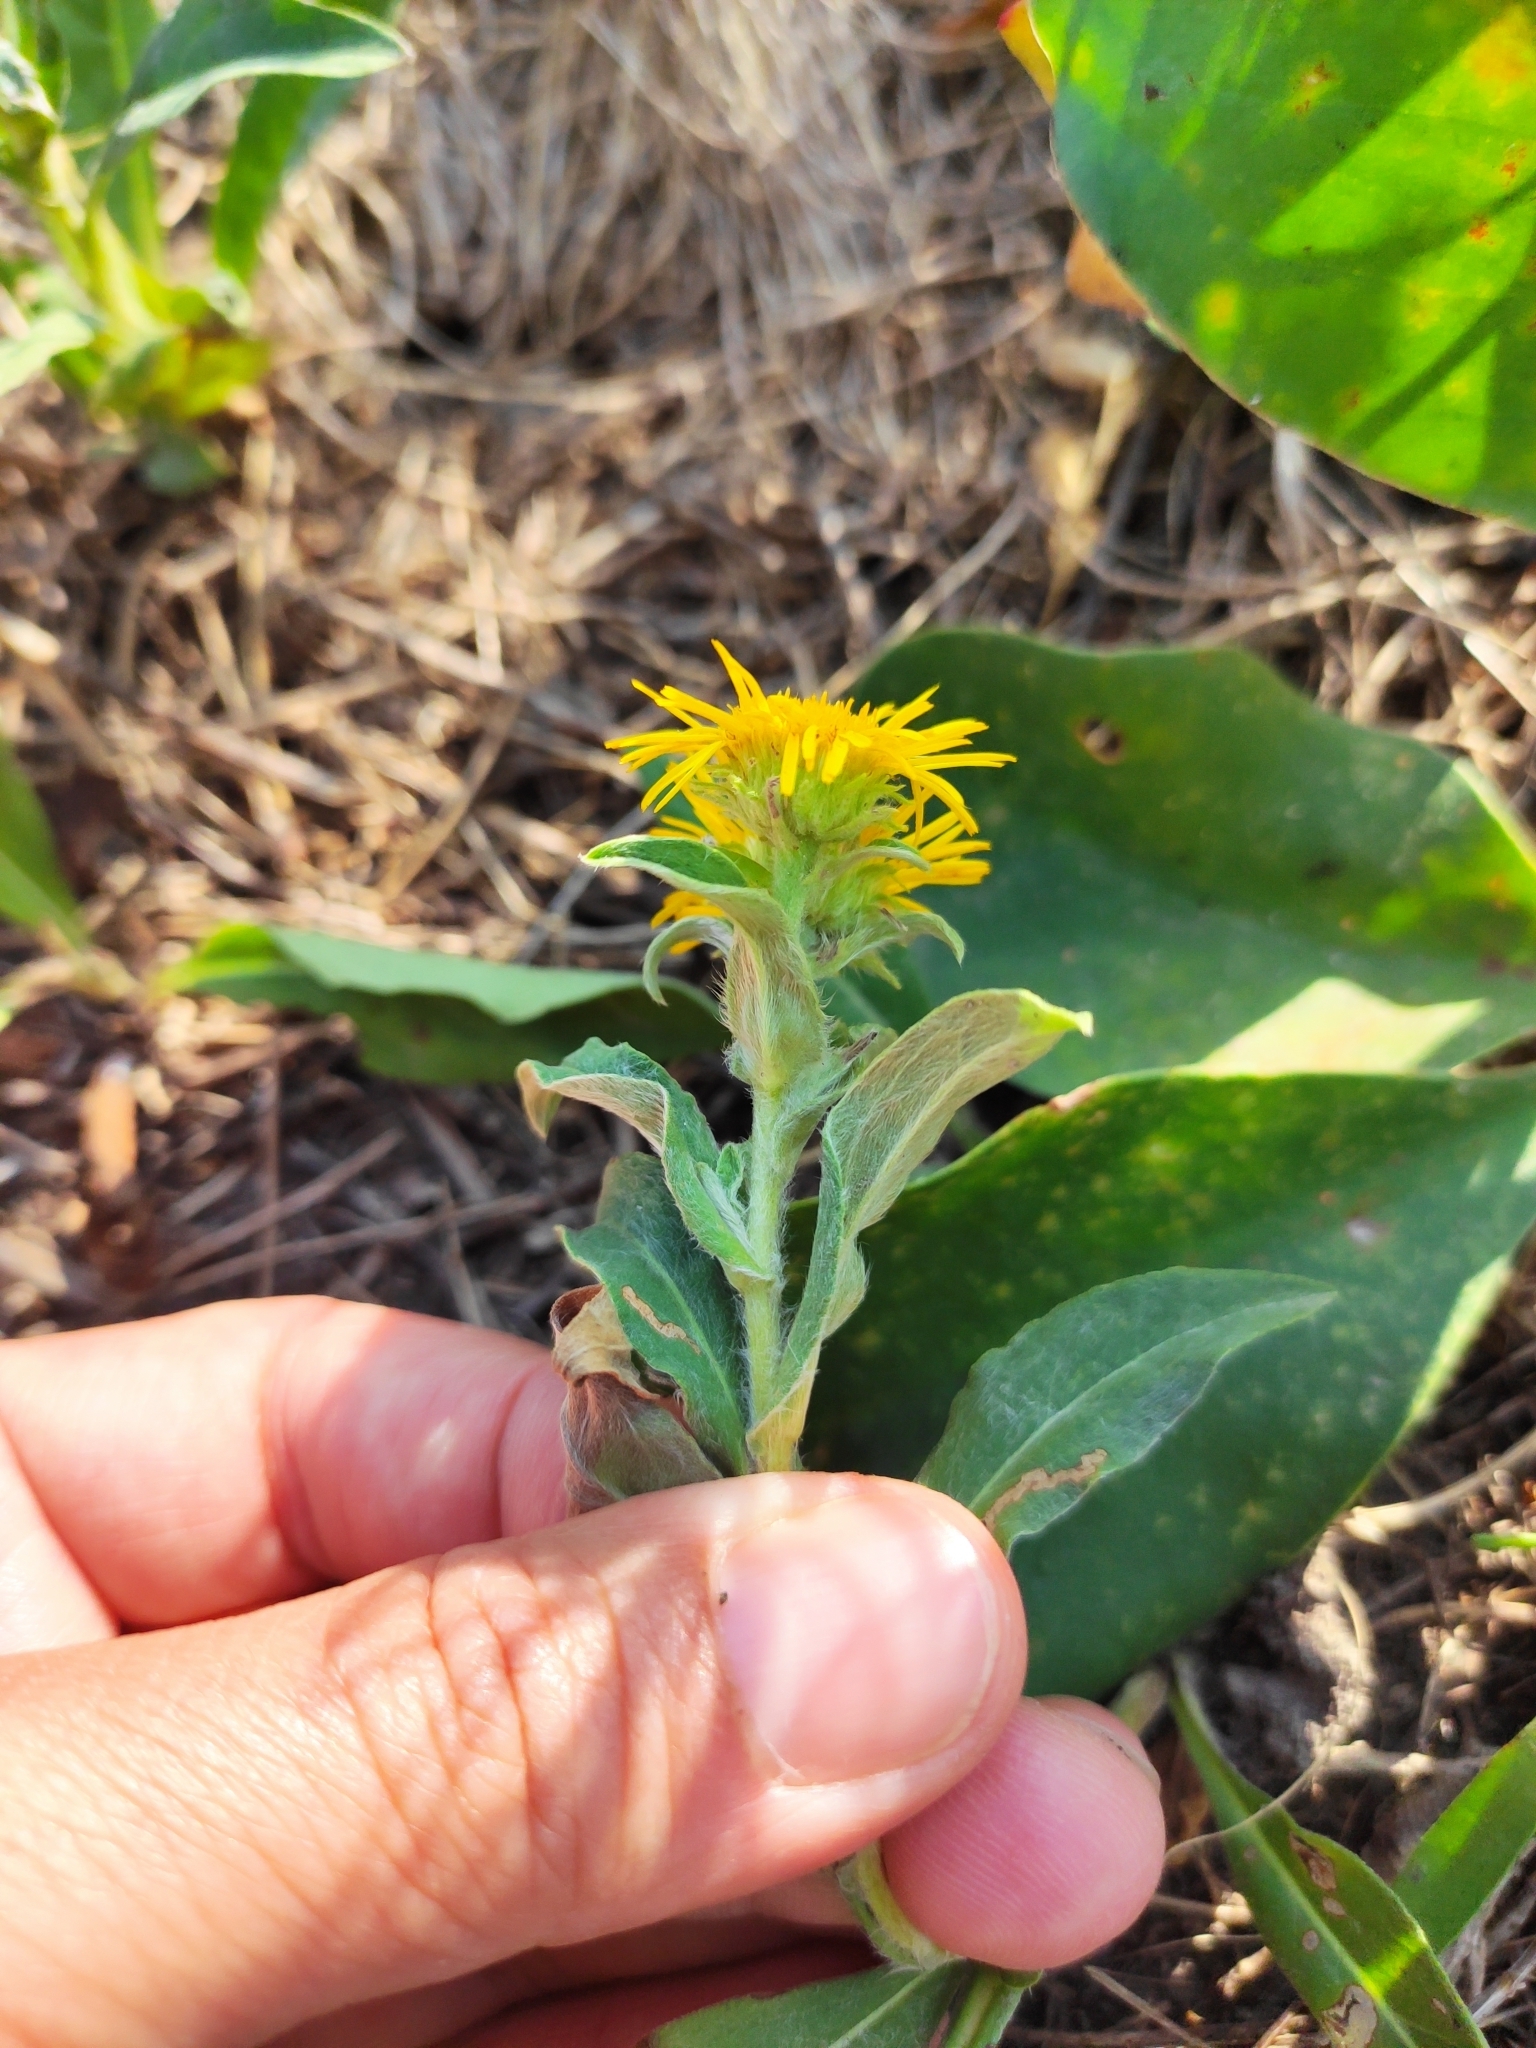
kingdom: Plantae
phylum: Tracheophyta
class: Magnoliopsida
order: Asterales
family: Asteraceae
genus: Pentanema
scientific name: Pentanema britannicum
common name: British elecampane
